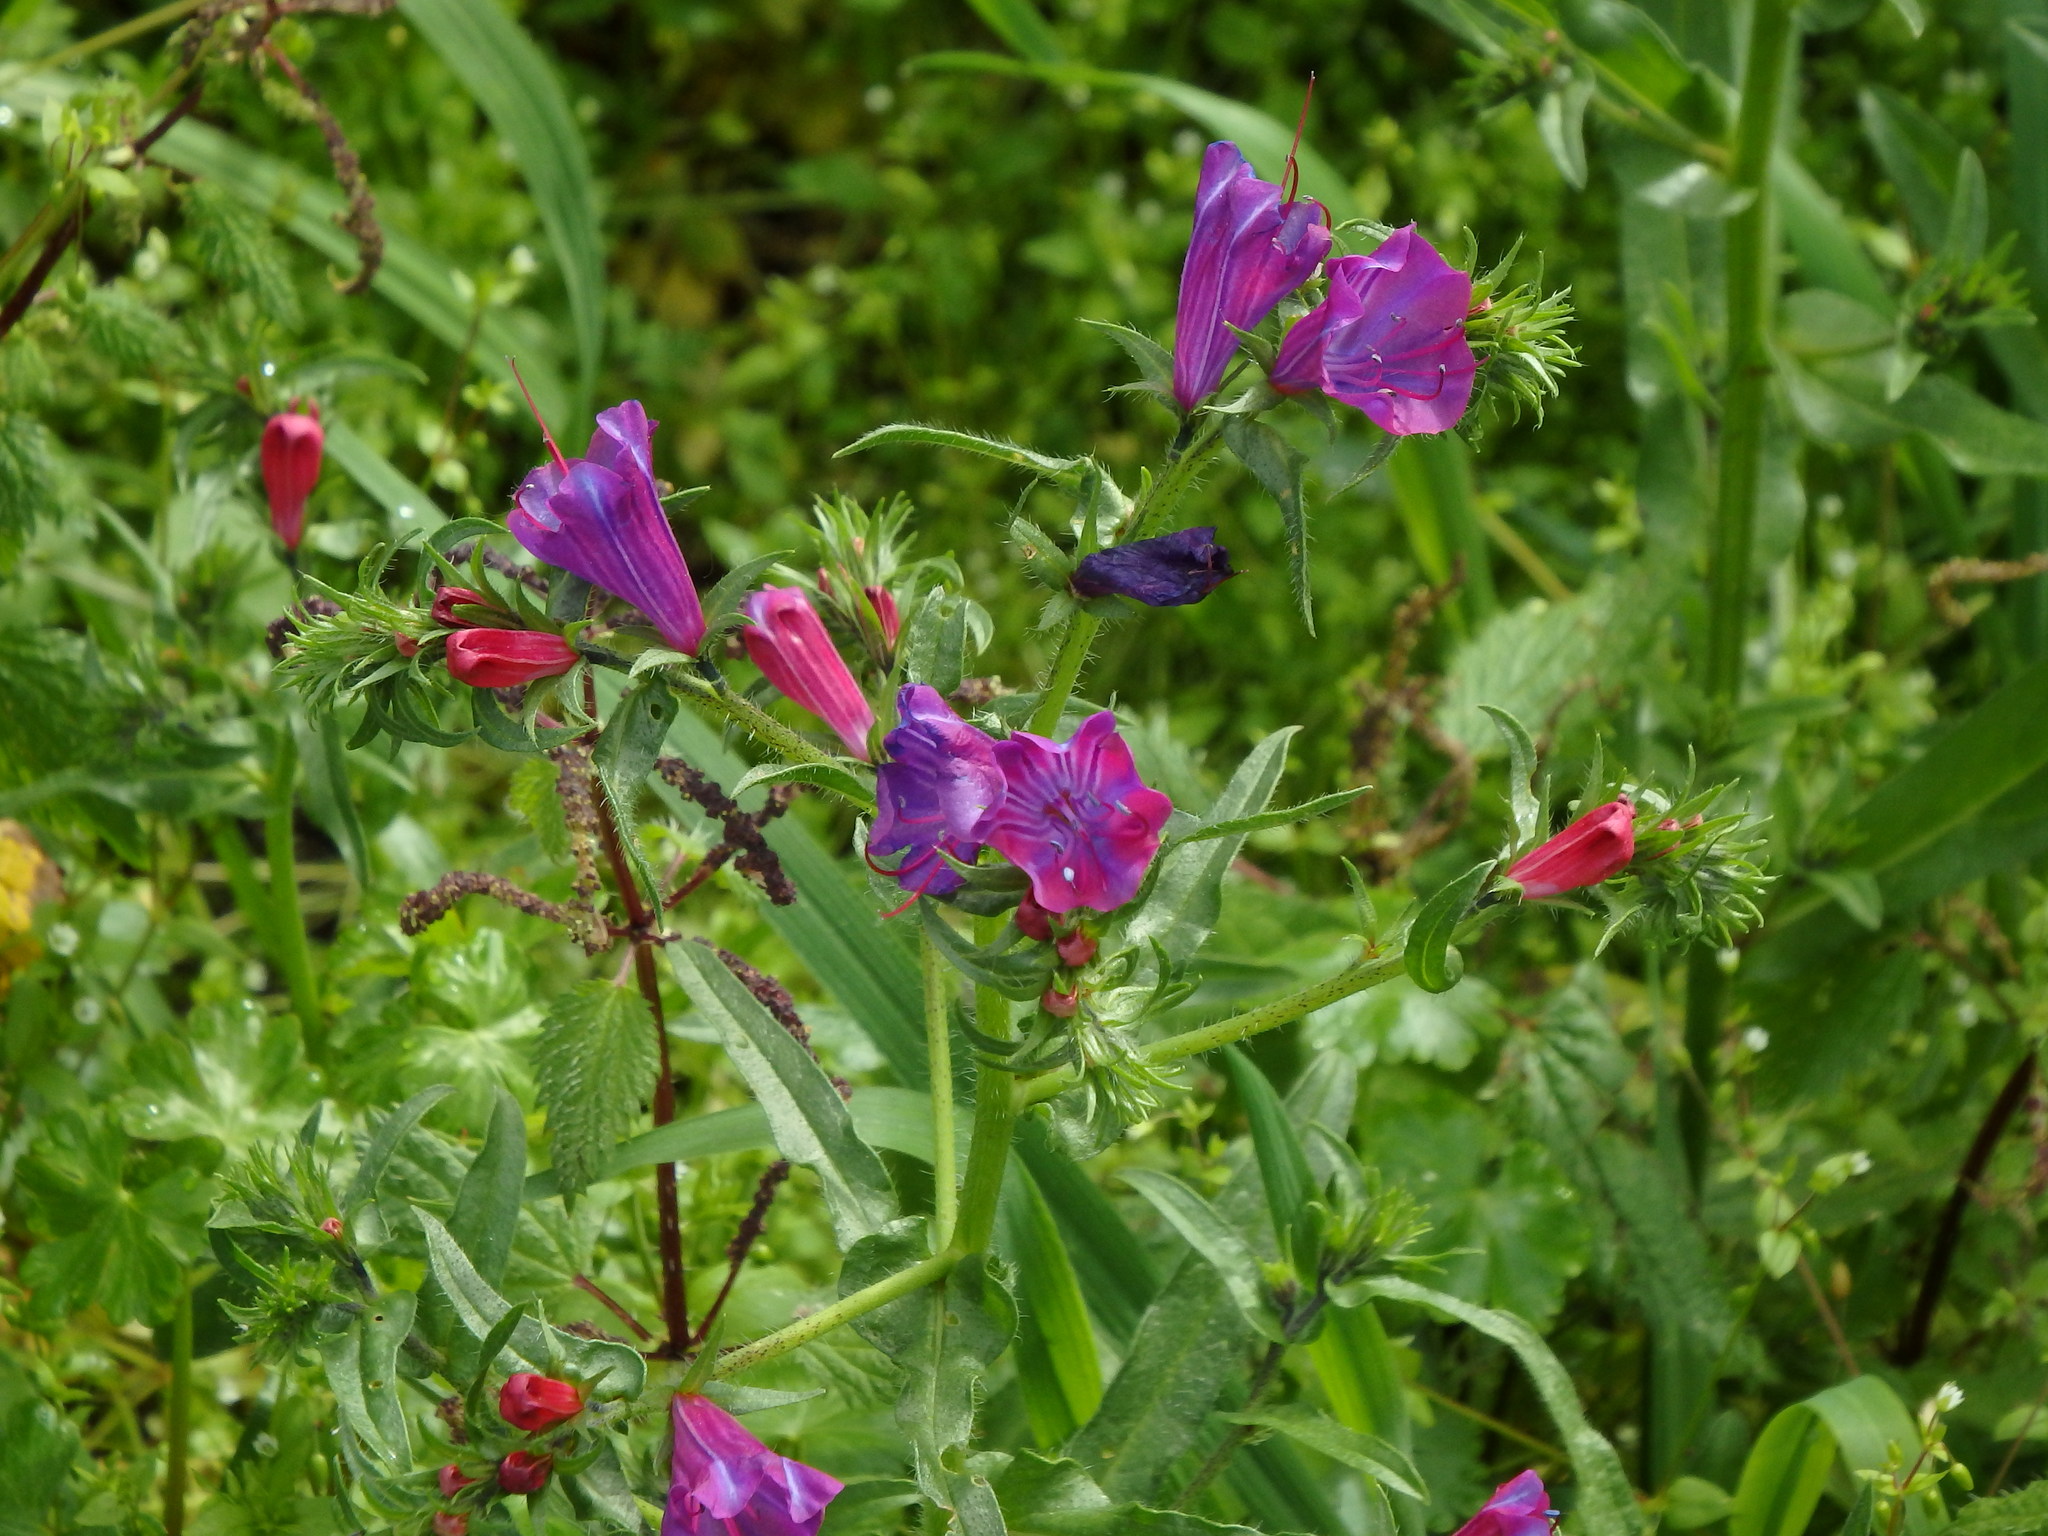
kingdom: Plantae
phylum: Tracheophyta
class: Magnoliopsida
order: Boraginales
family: Boraginaceae
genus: Echium
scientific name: Echium plantagineum
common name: Purple viper's-bugloss
